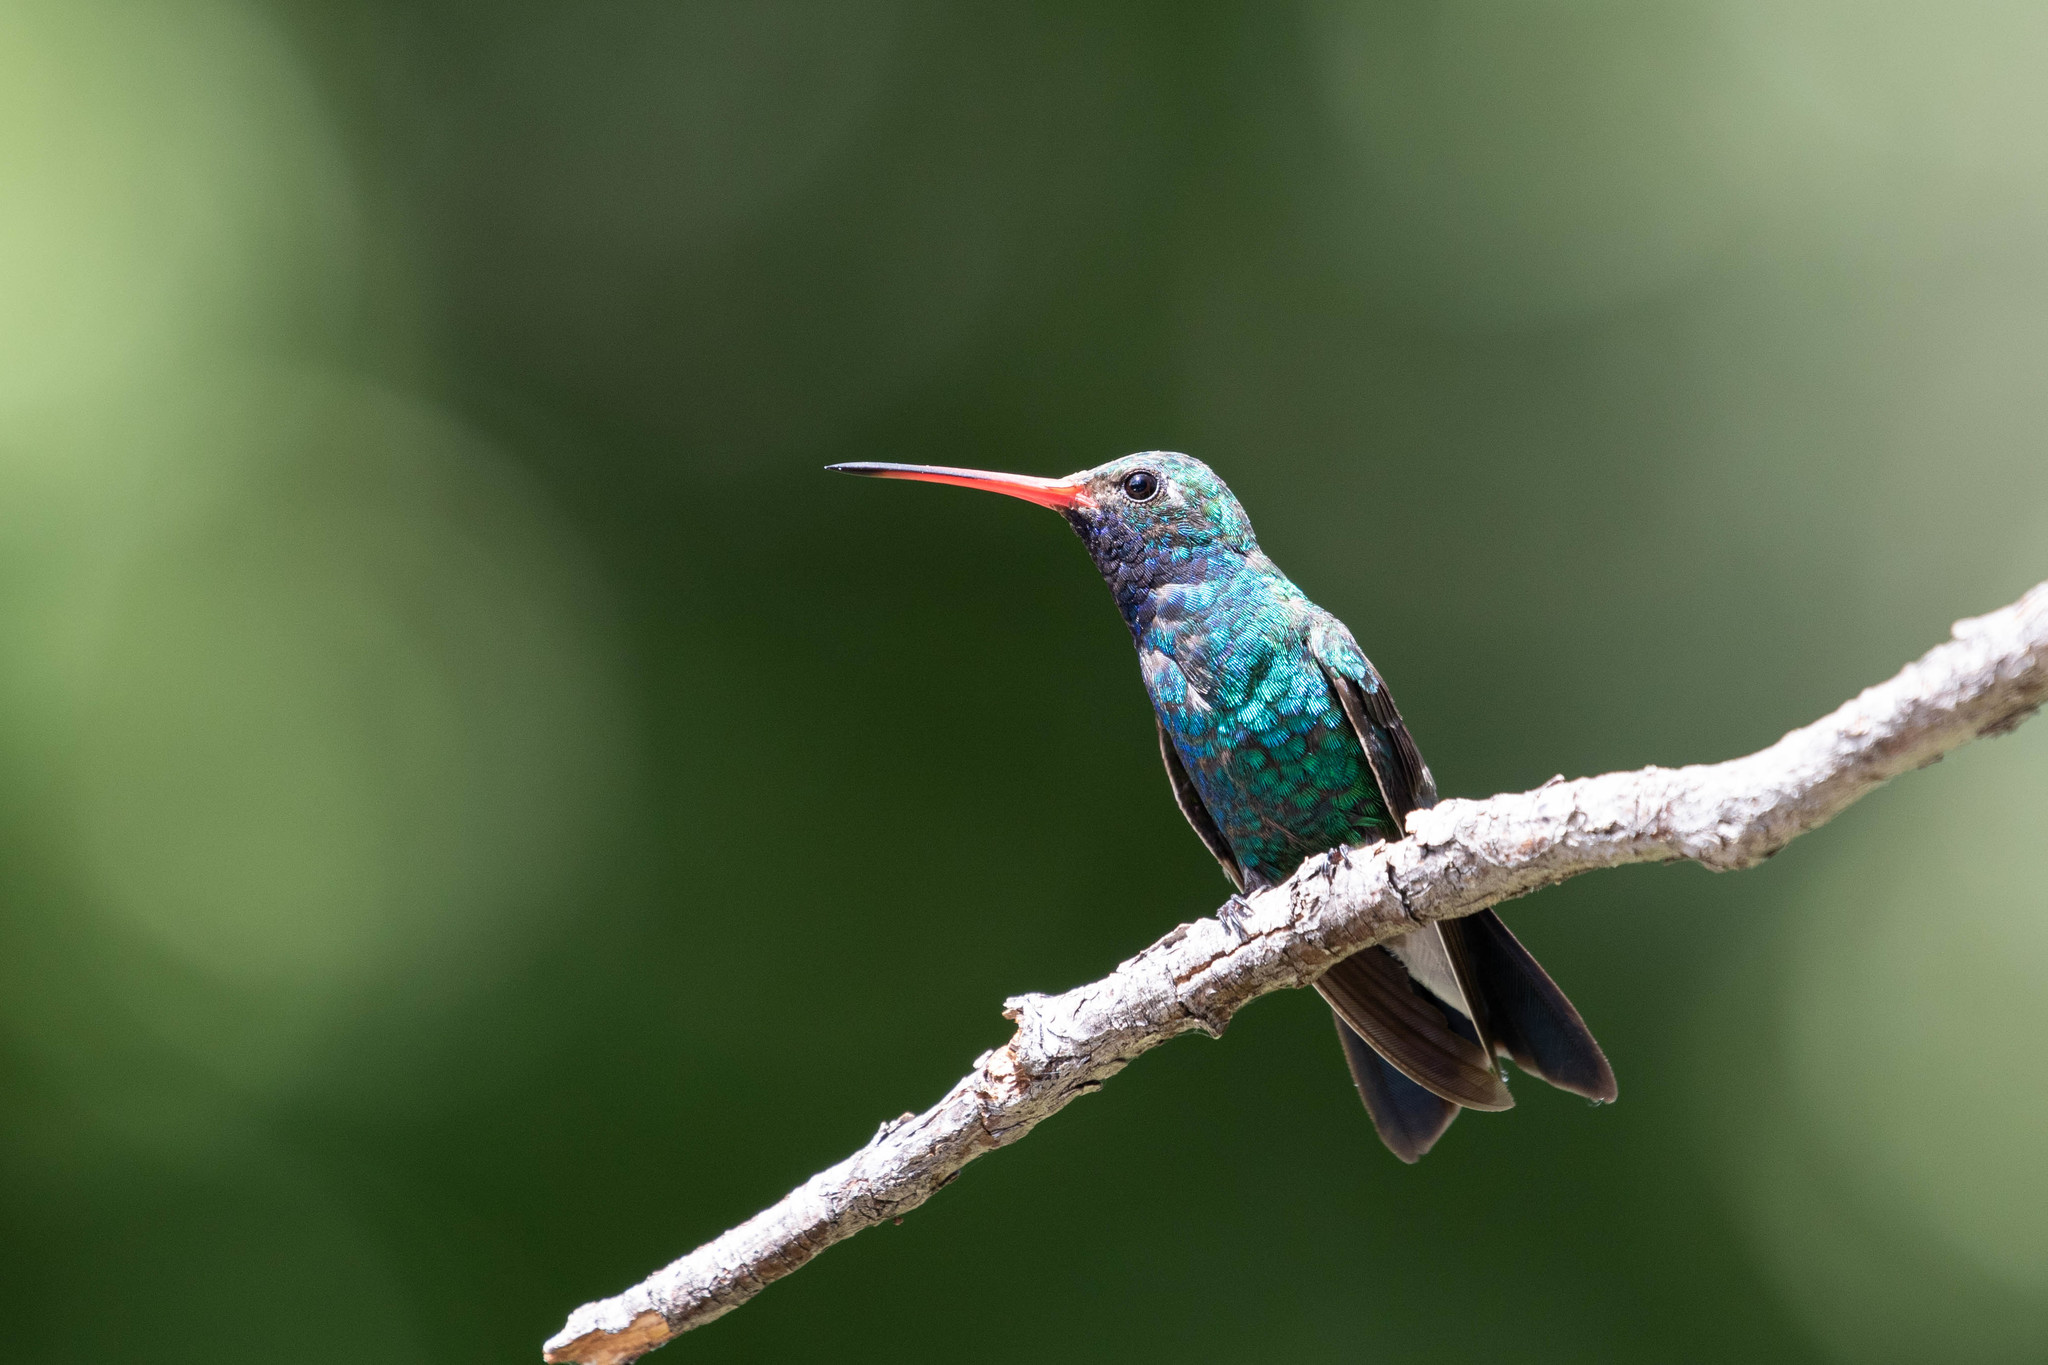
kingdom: Animalia
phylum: Chordata
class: Aves
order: Apodiformes
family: Trochilidae
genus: Cynanthus
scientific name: Cynanthus latirostris
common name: Broad-billed hummingbird
